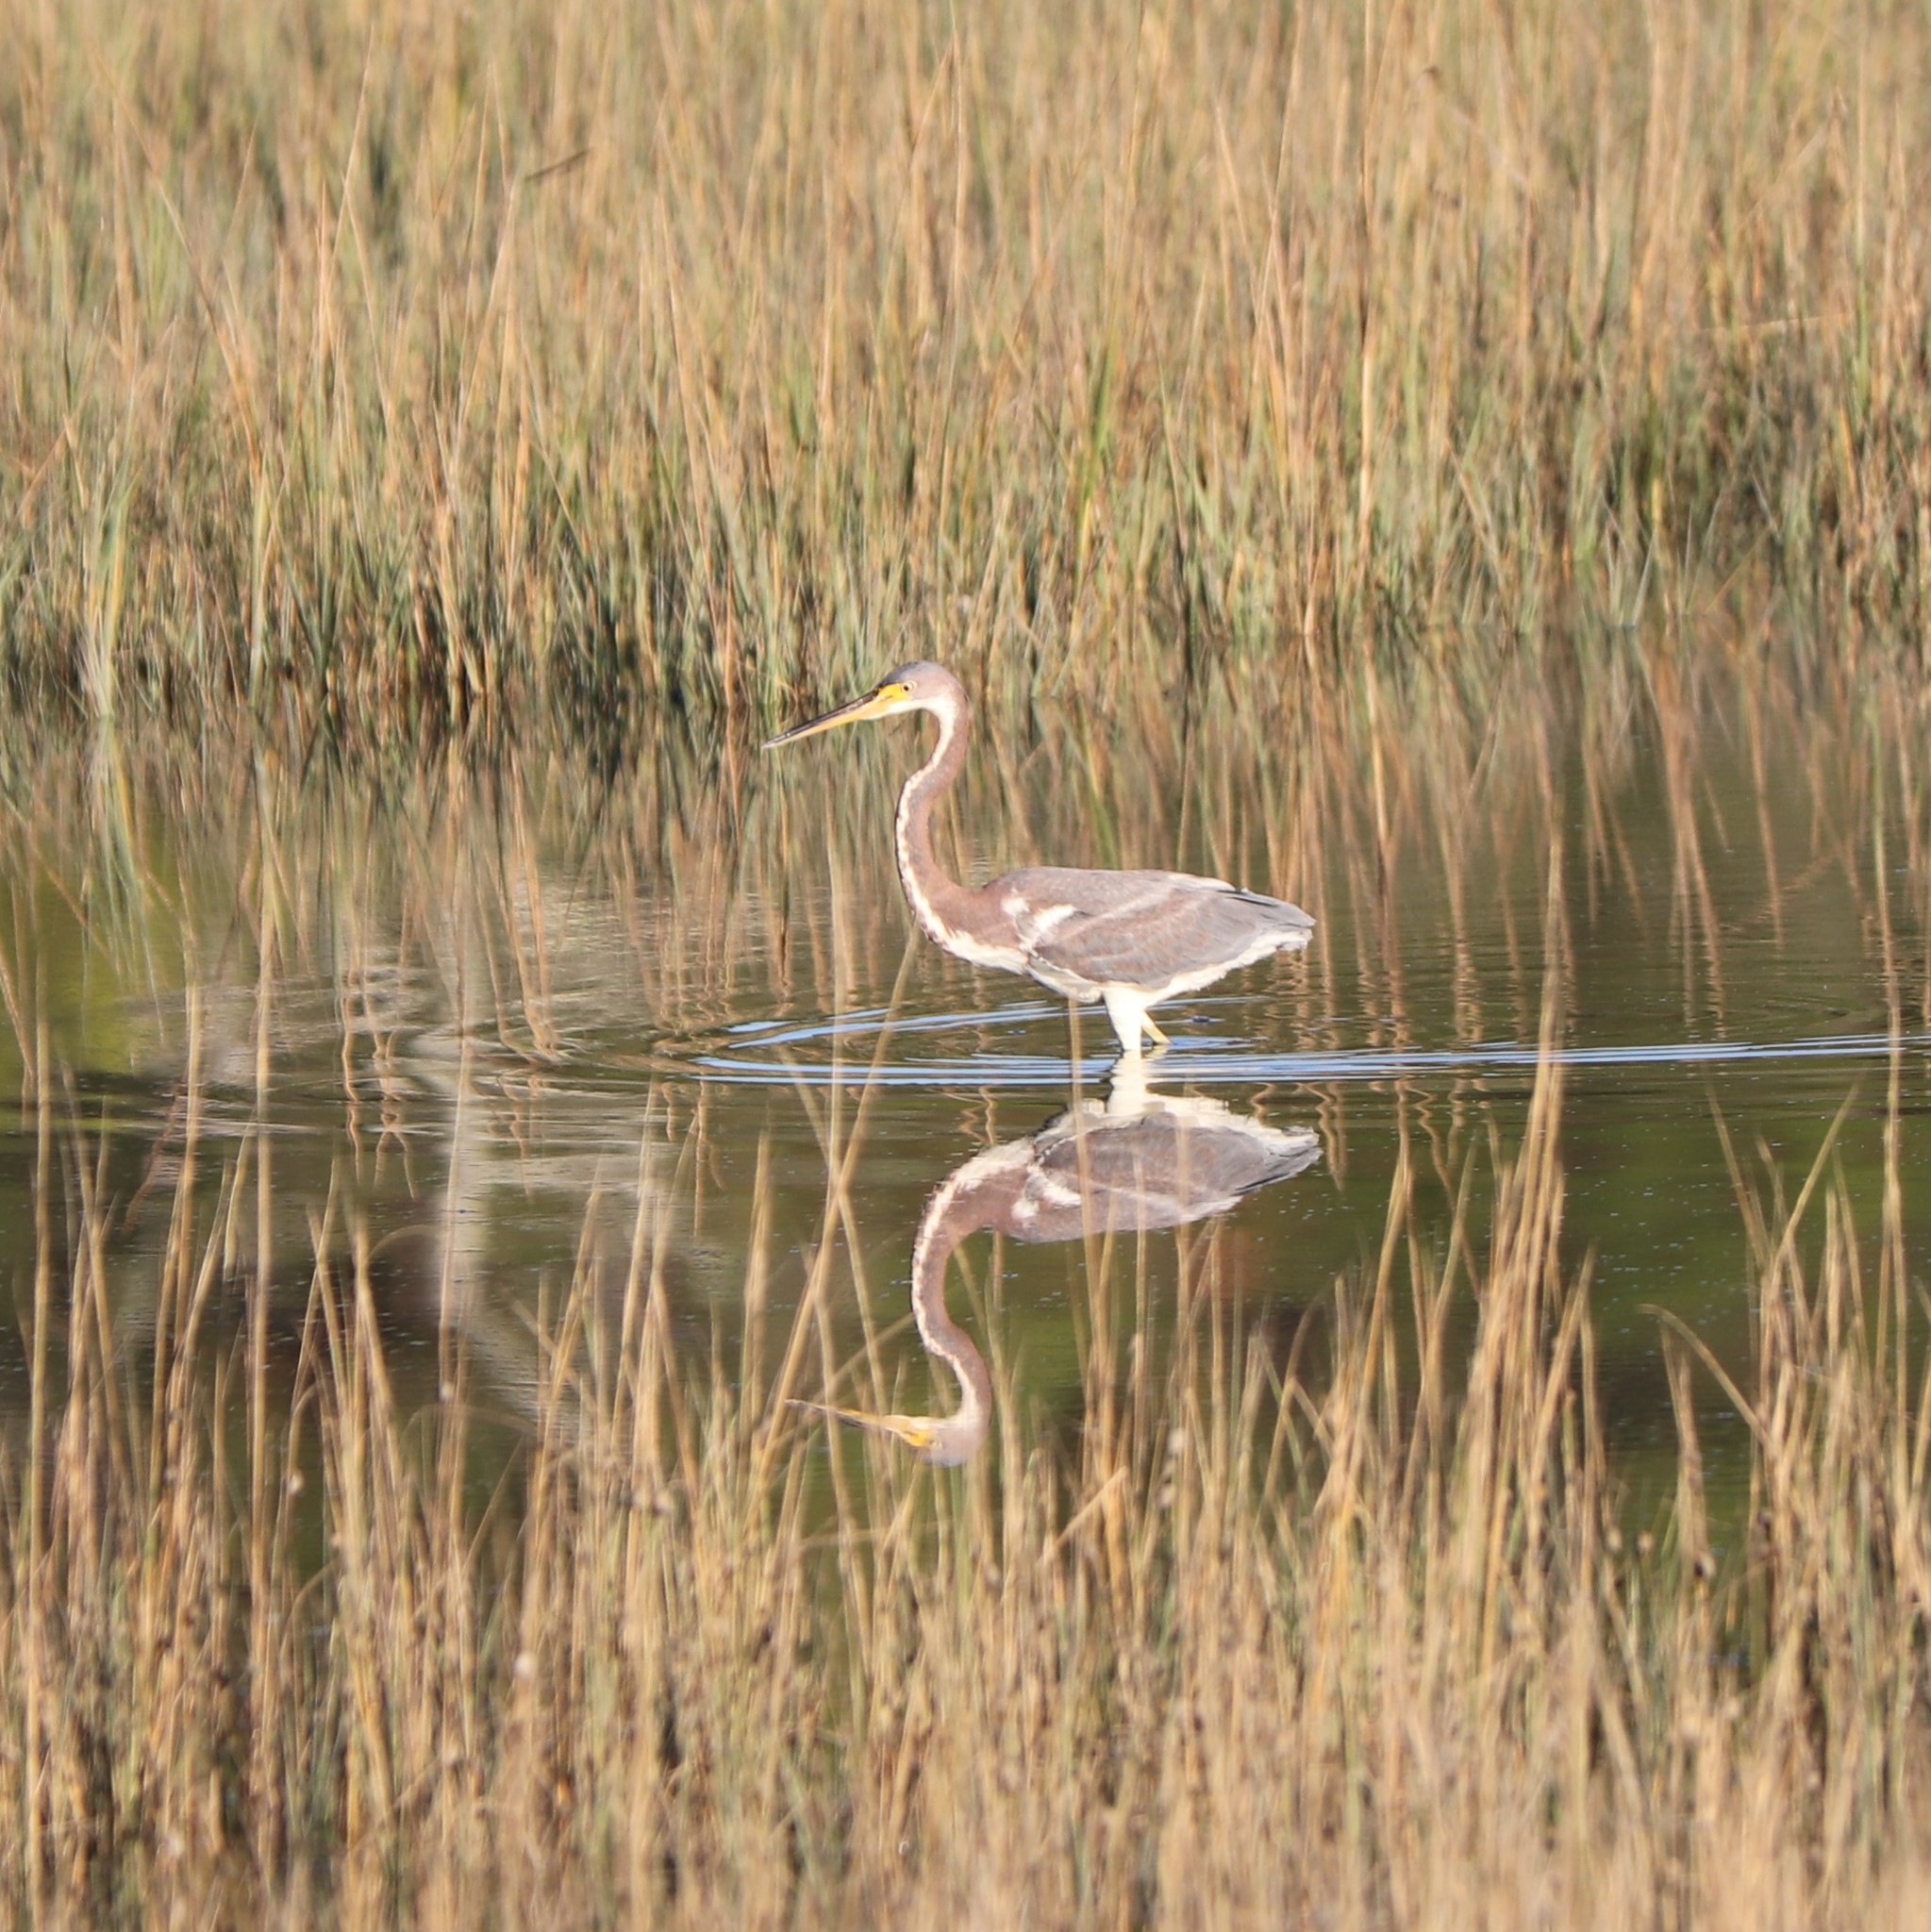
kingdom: Animalia
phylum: Chordata
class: Aves
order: Pelecaniformes
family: Ardeidae
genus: Egretta
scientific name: Egretta tricolor
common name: Tricolored heron
